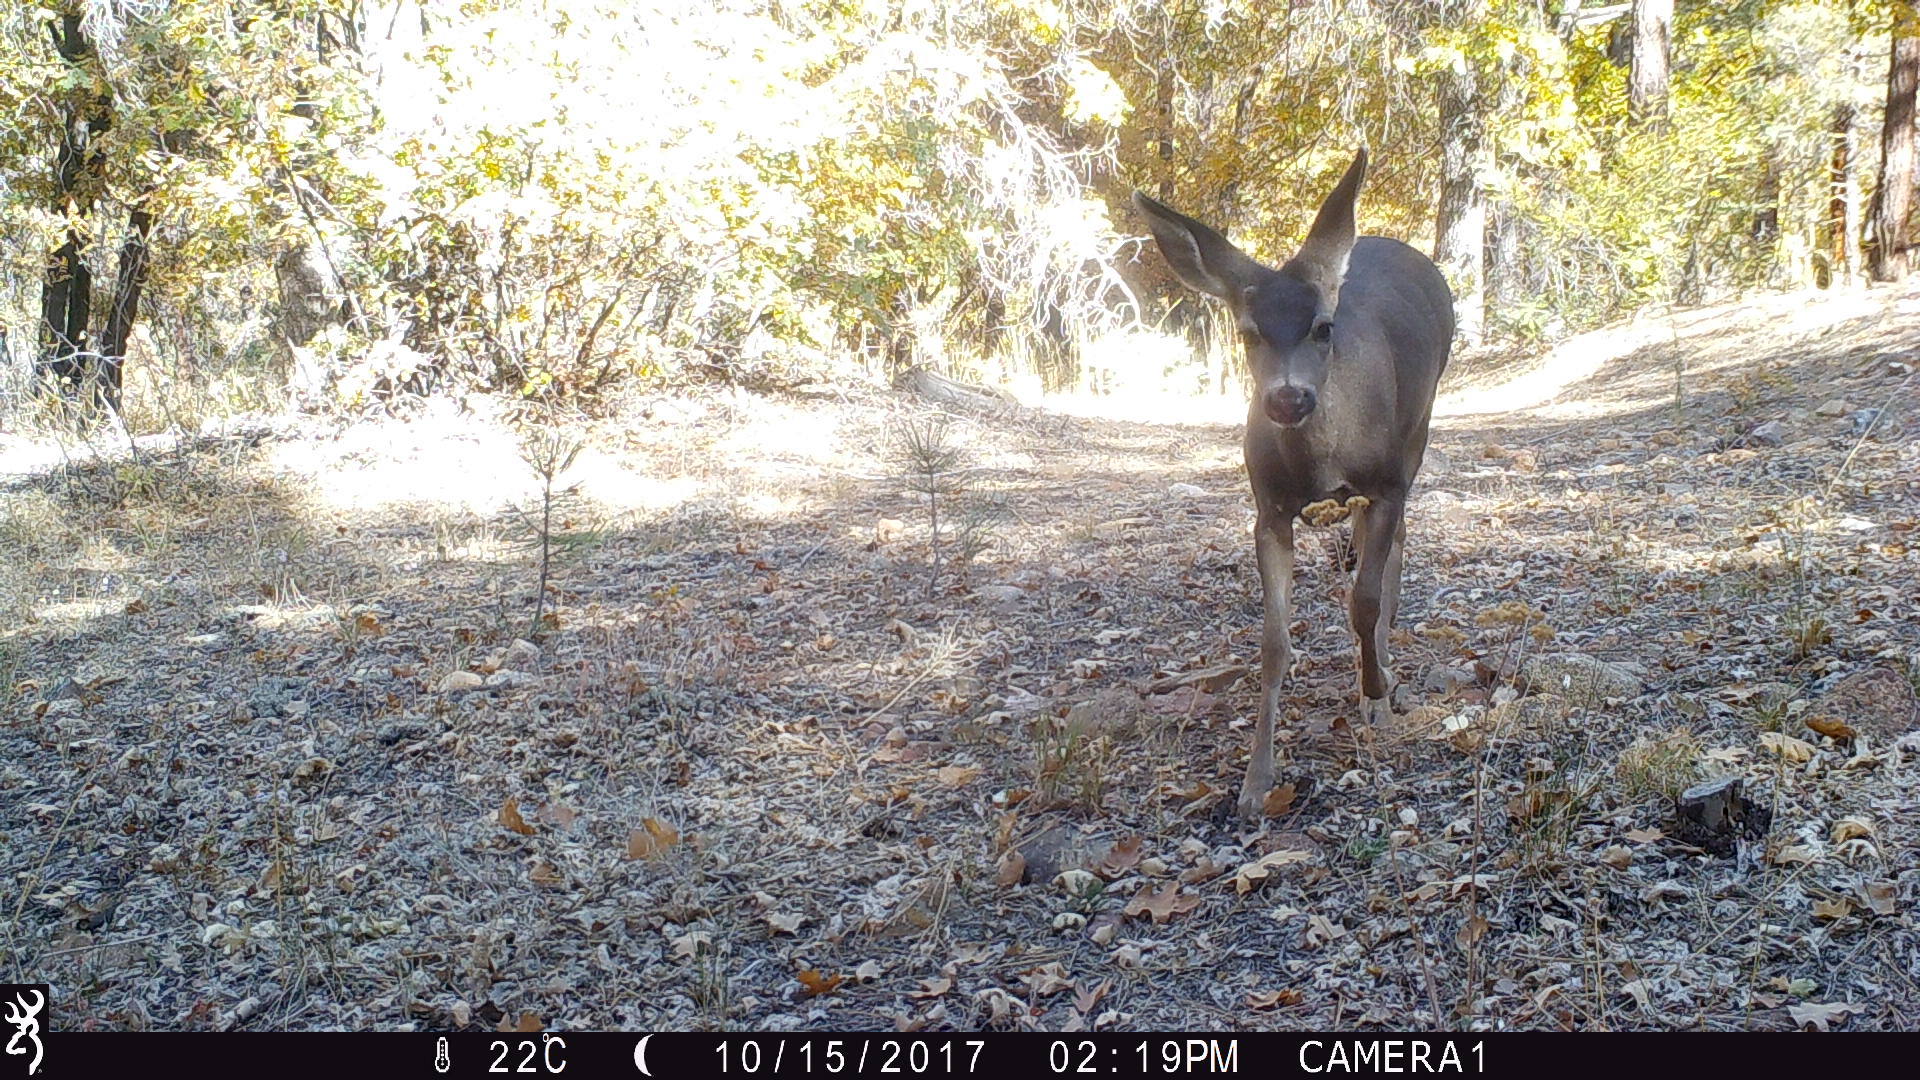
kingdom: Animalia
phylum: Chordata
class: Mammalia
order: Artiodactyla
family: Cervidae
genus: Odocoileus
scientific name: Odocoileus hemionus
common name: Mule deer
